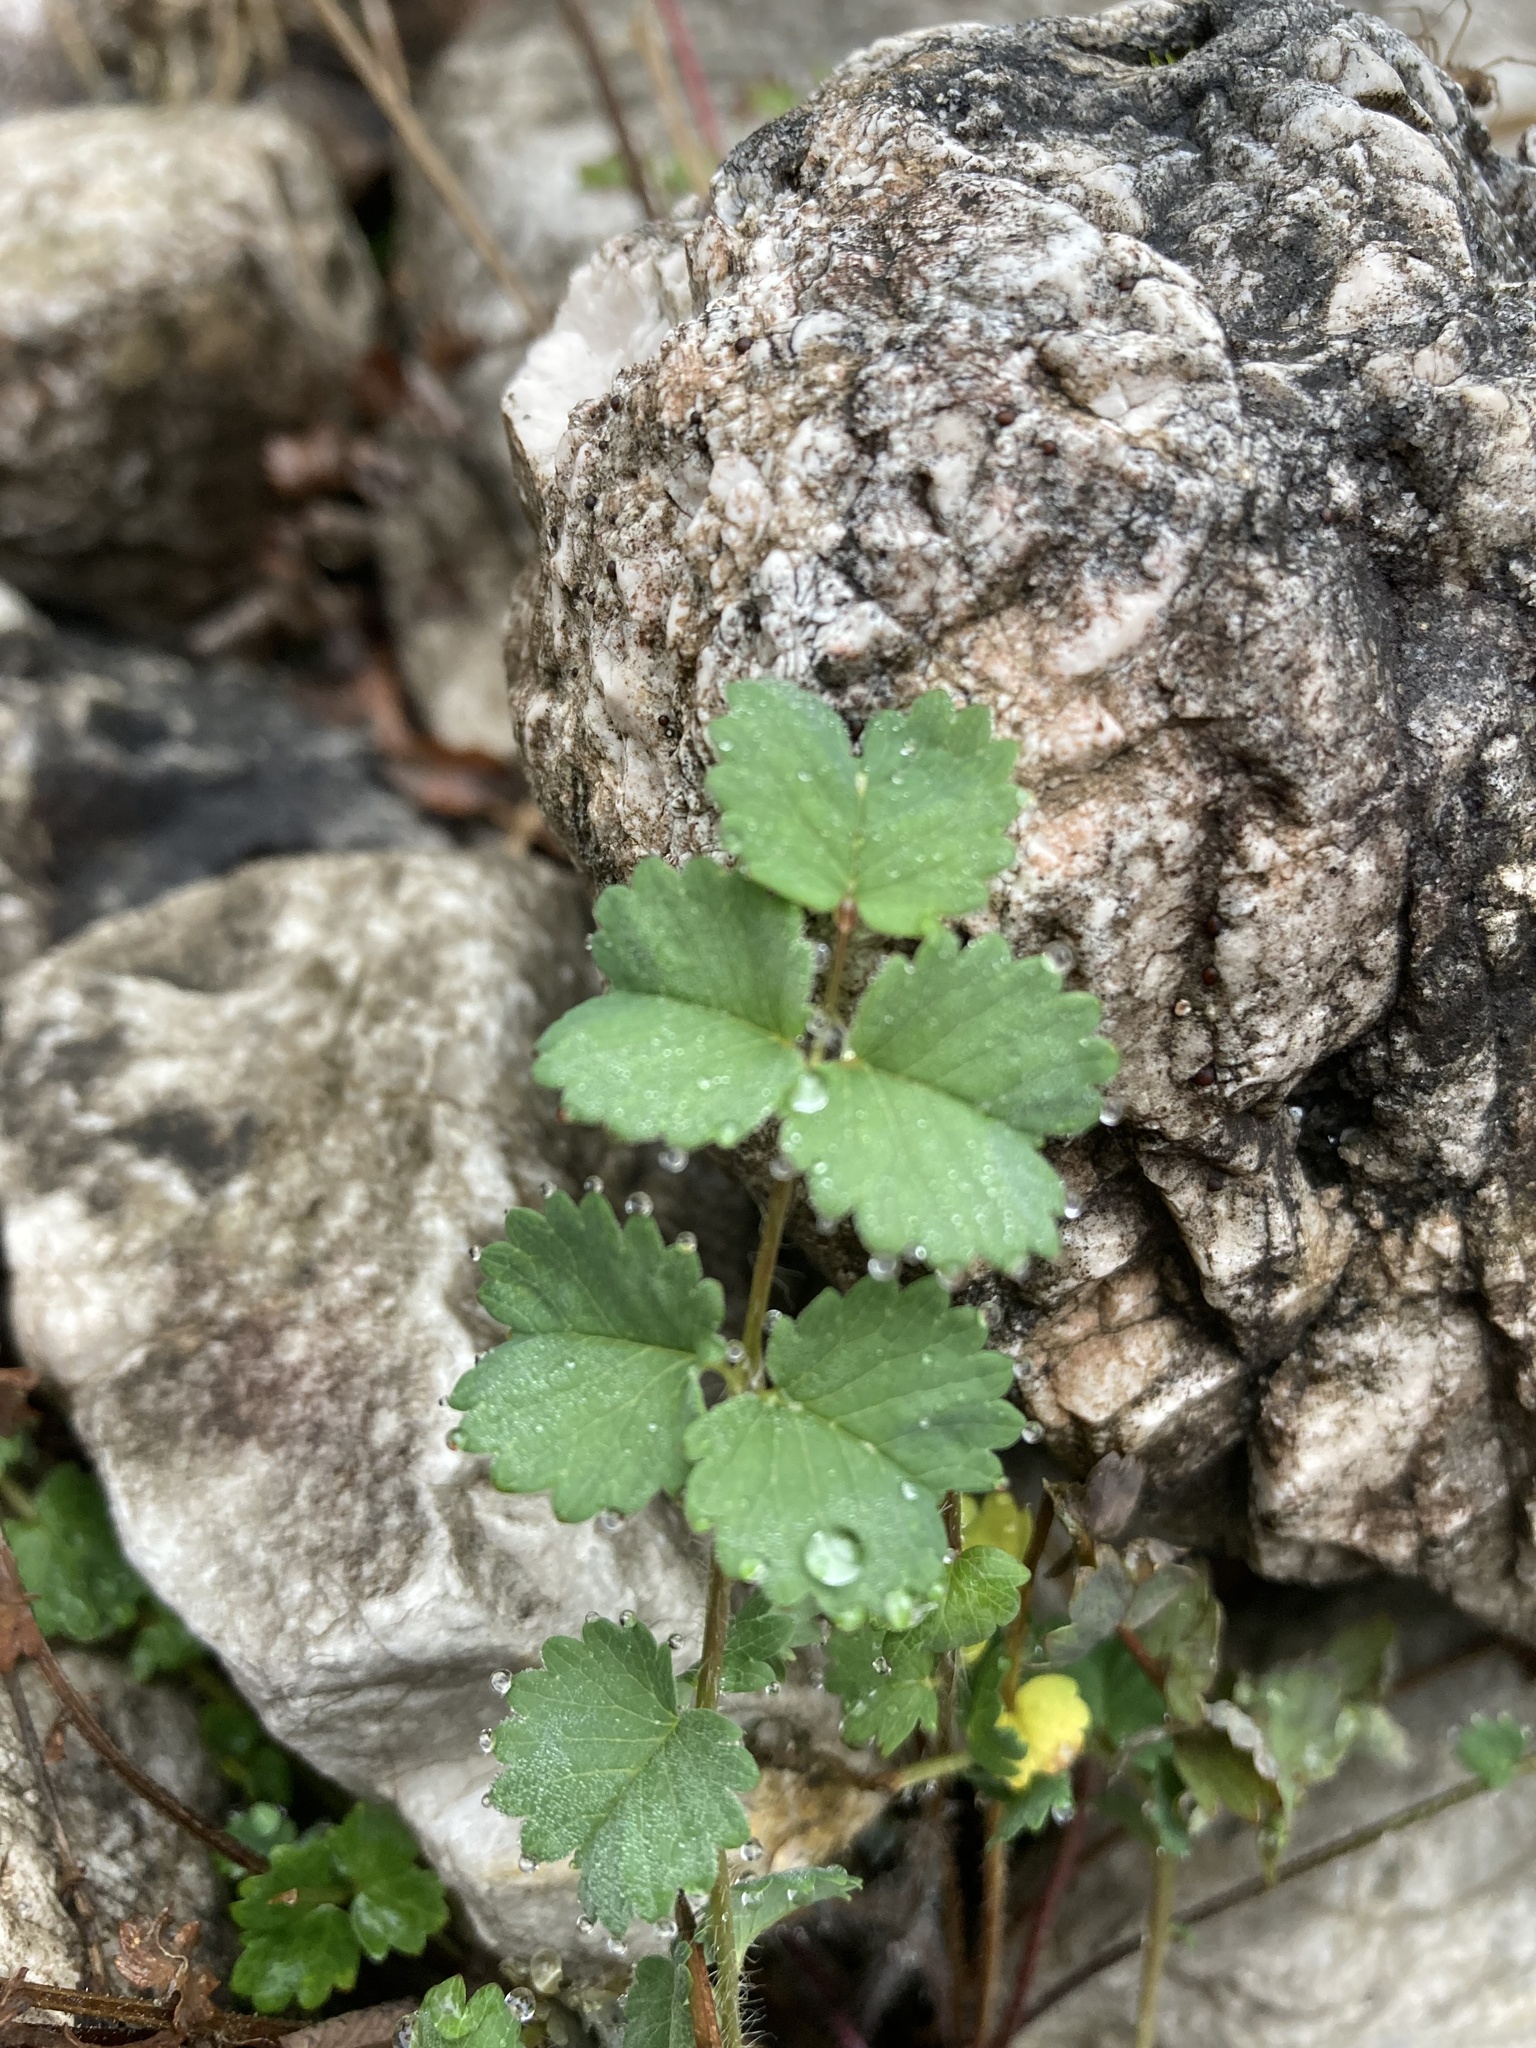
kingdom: Plantae
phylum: Tracheophyta
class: Magnoliopsida
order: Rosales
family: Rosaceae
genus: Poterium
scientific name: Poterium sanguisorba
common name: Salad burnet
